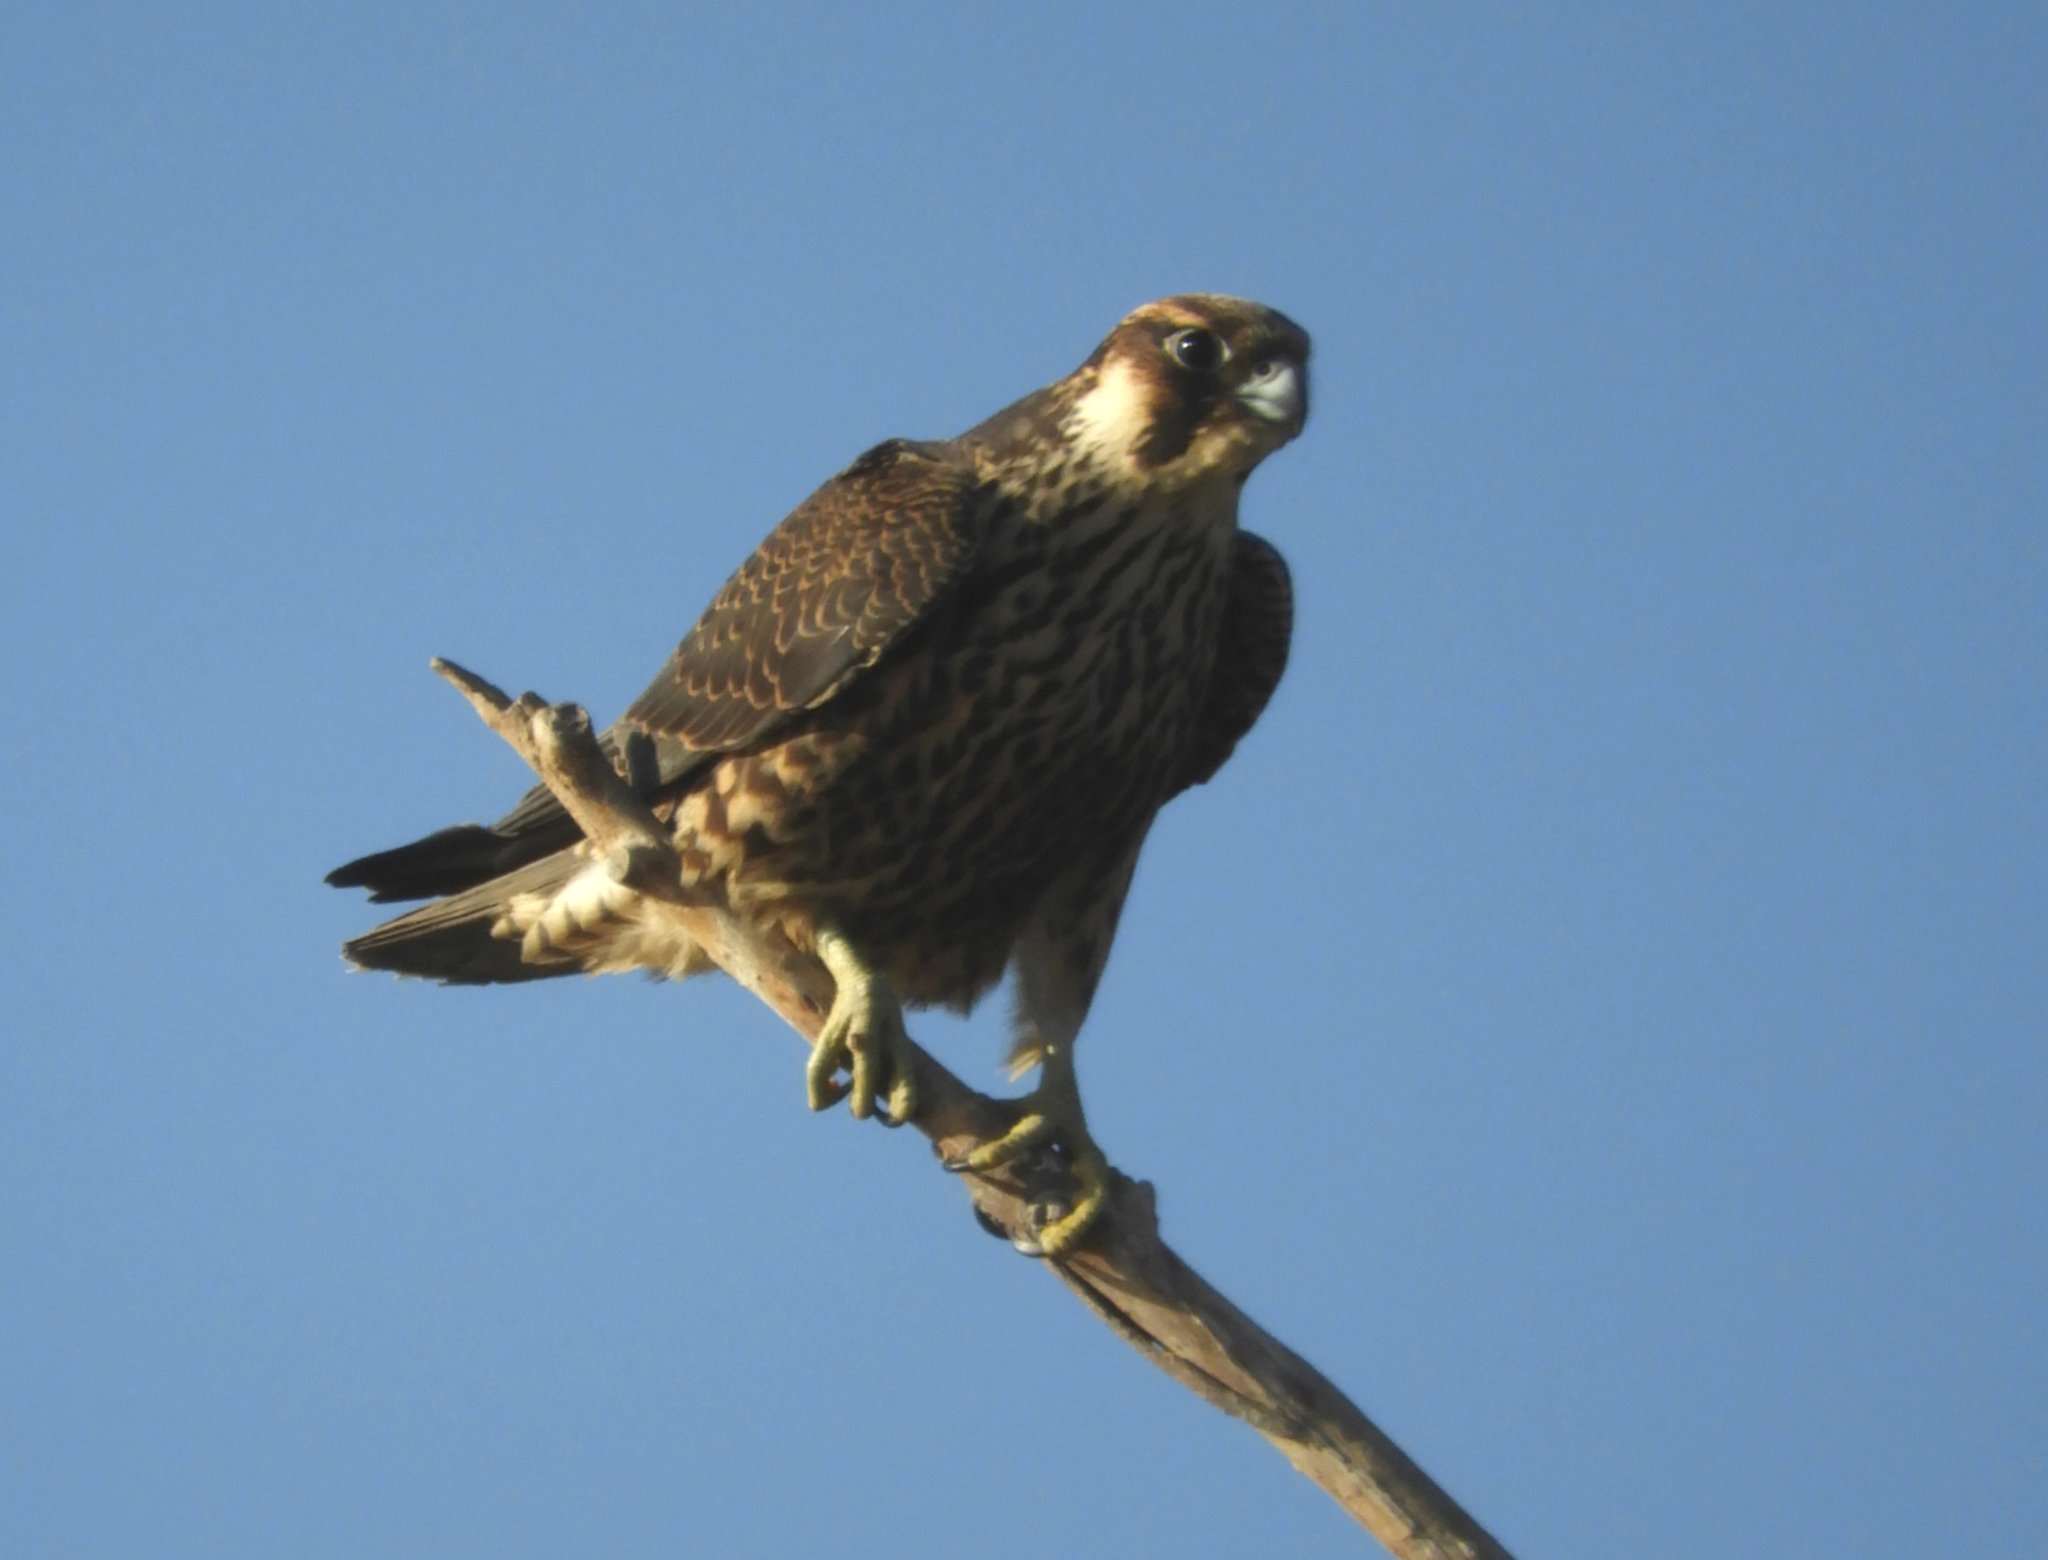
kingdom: Animalia
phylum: Chordata
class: Aves
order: Falconiformes
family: Falconidae
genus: Falco
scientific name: Falco peregrinus
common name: Peregrine falcon
